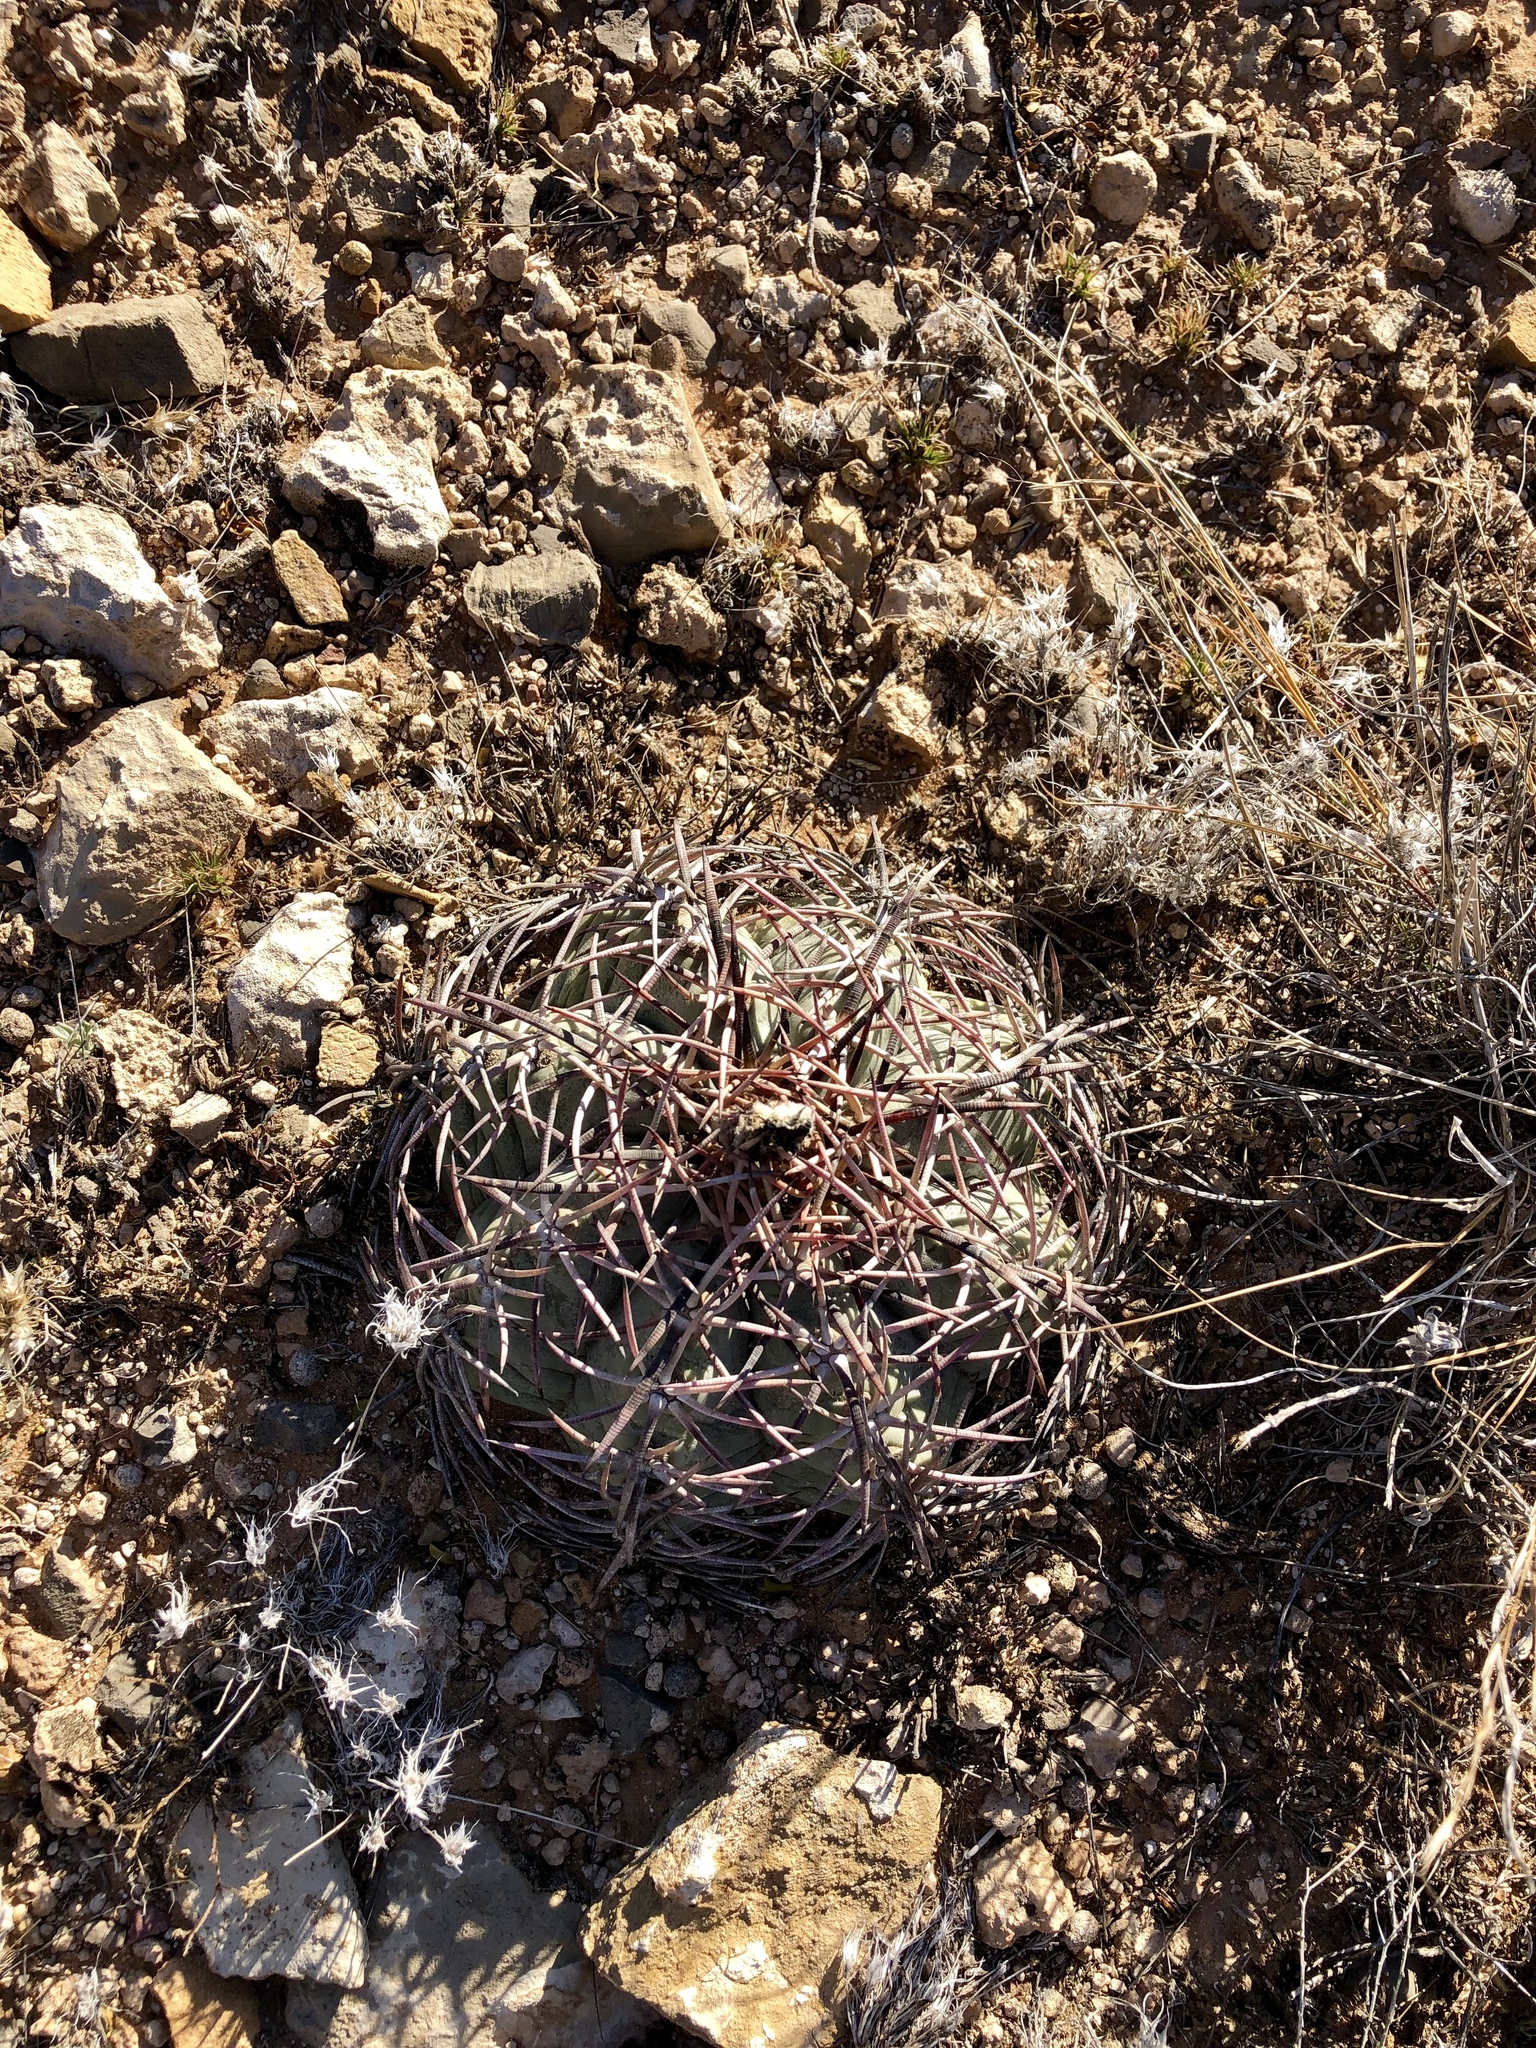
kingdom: Plantae
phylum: Tracheophyta
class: Magnoliopsida
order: Caryophyllales
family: Cactaceae
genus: Echinocactus
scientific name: Echinocactus horizonthalonius
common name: Devilshead
